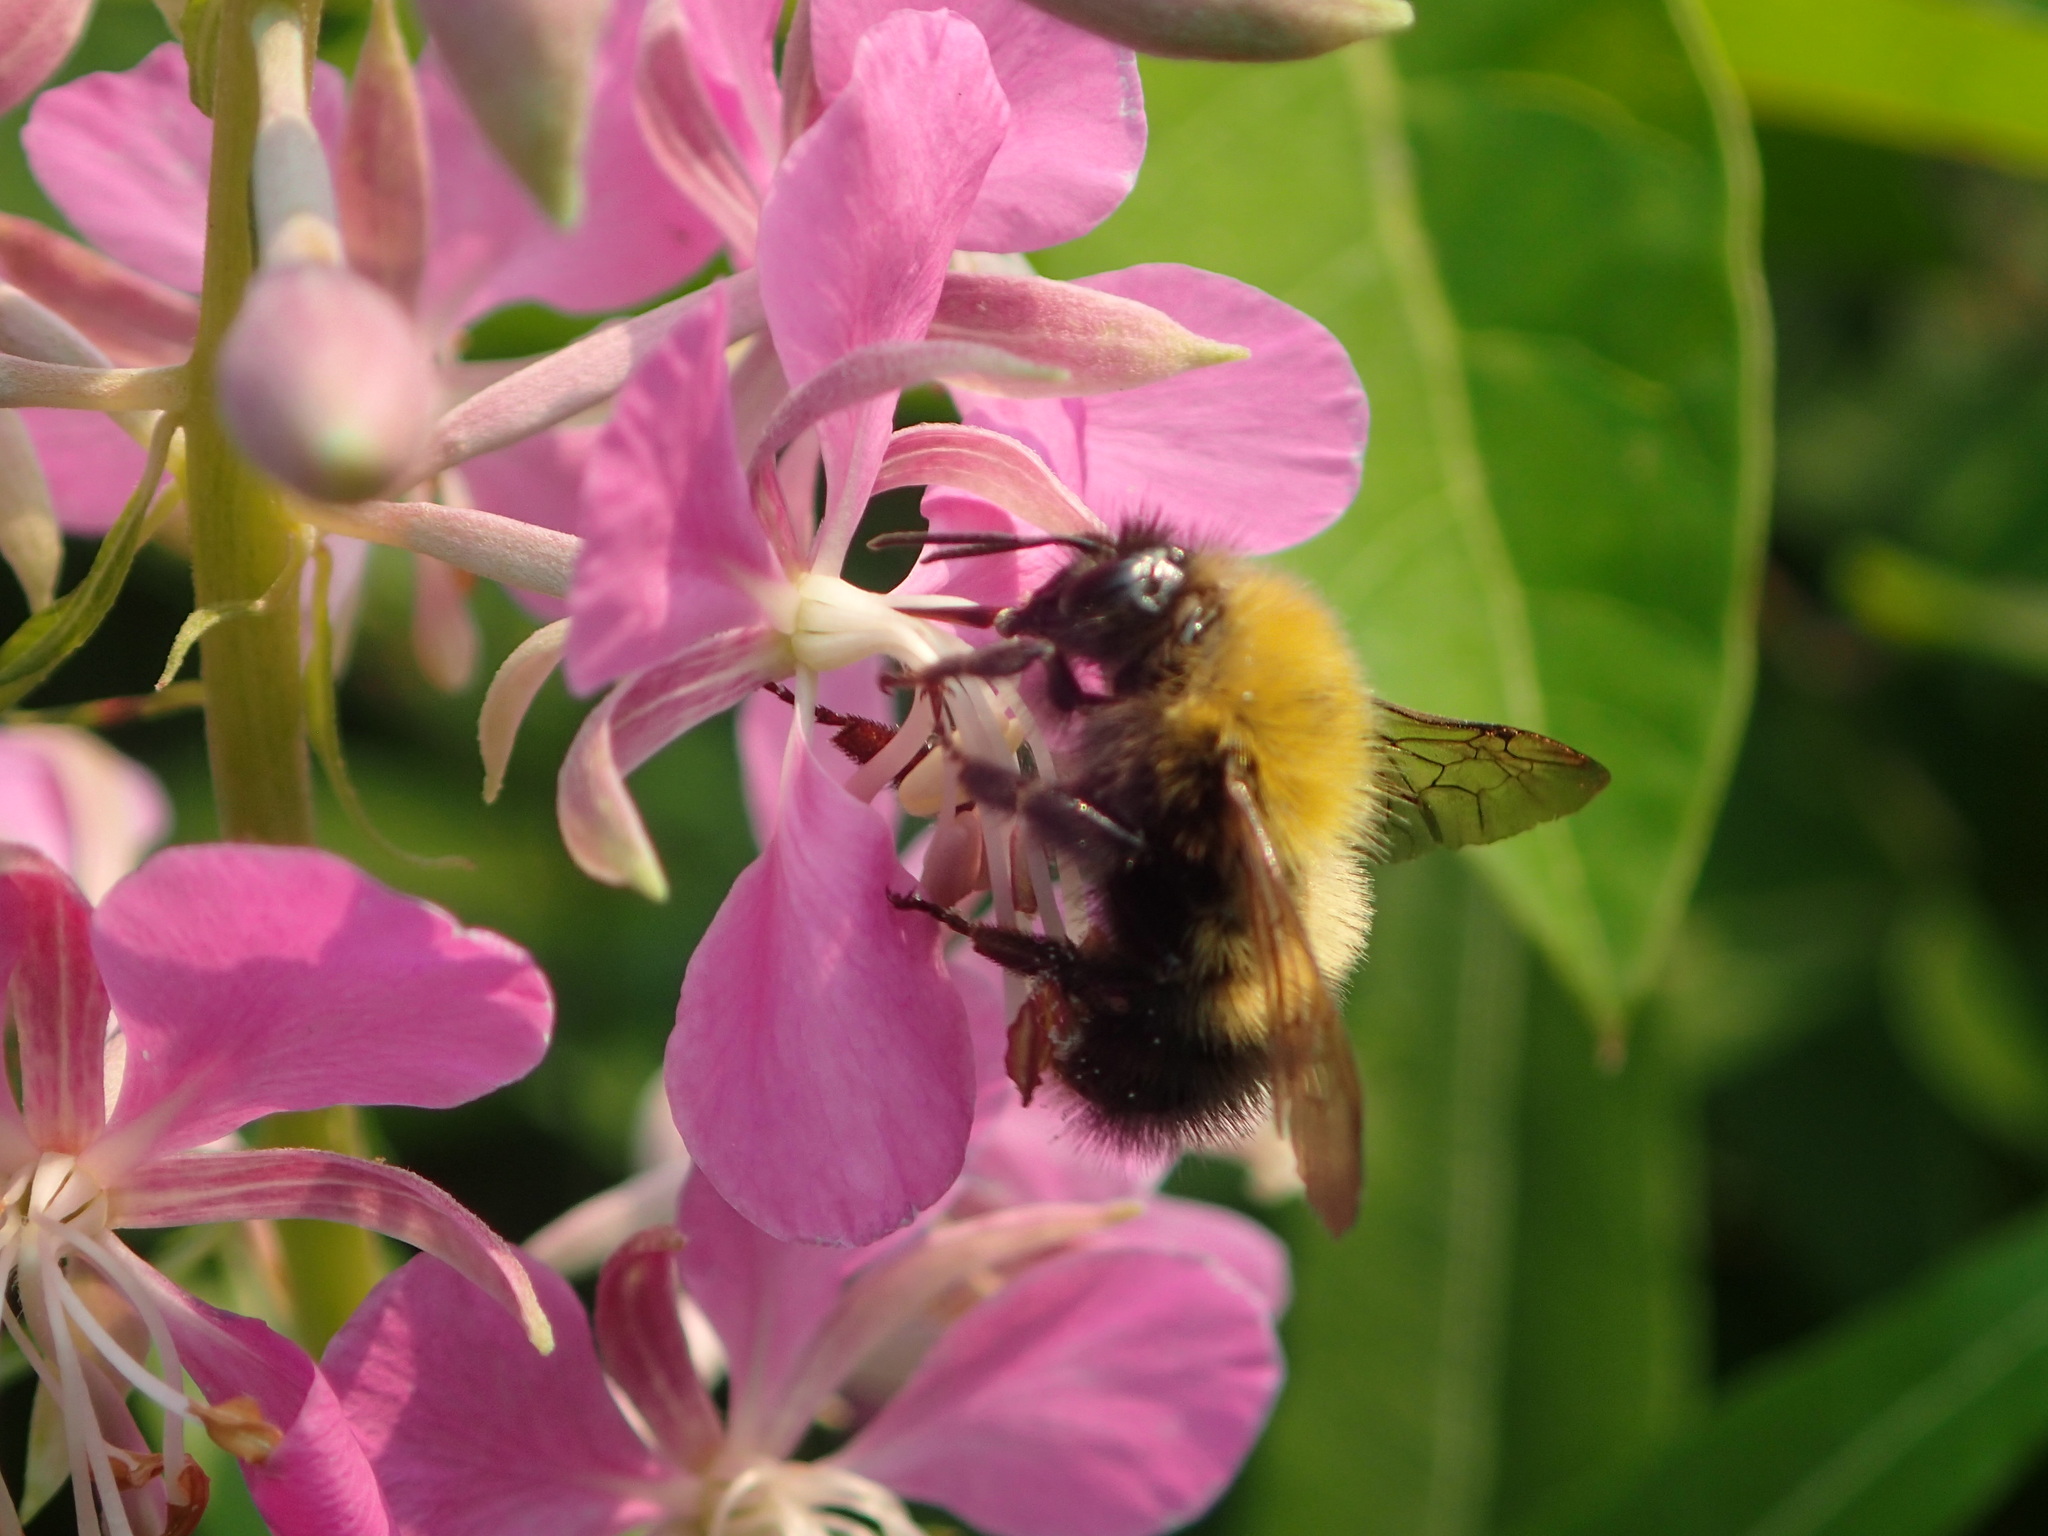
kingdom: Animalia
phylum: Arthropoda
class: Insecta
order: Hymenoptera
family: Apidae
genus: Bombus
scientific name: Bombus perplexus
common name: Confusing bumble bee
